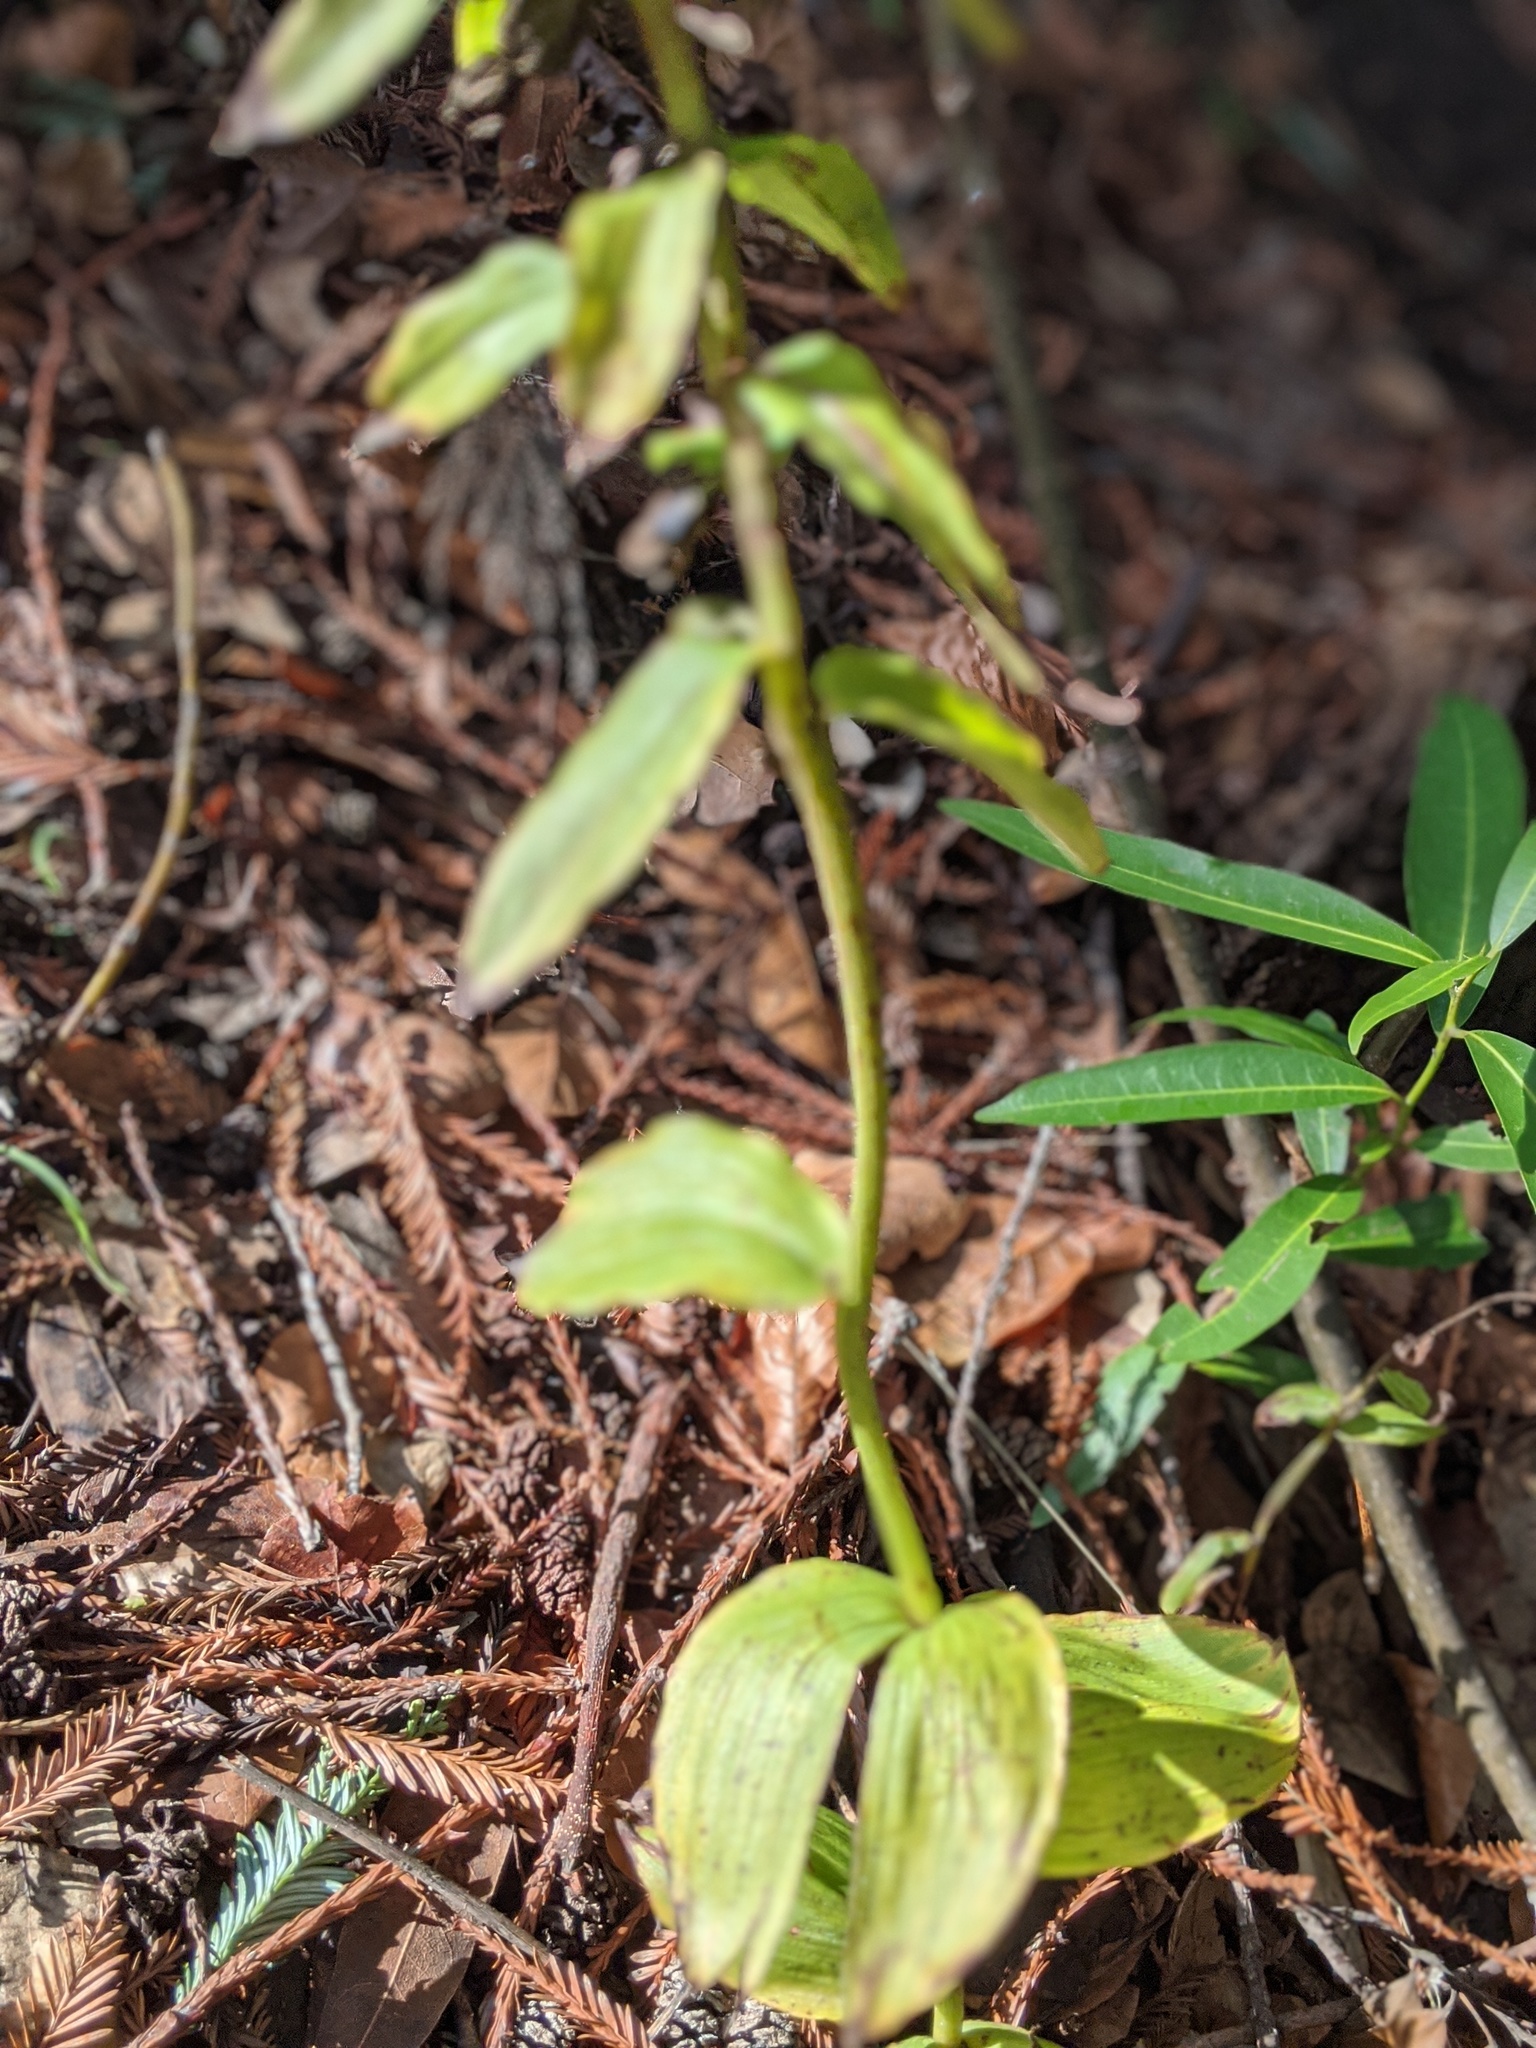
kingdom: Plantae
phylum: Tracheophyta
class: Liliopsida
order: Asparagales
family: Orchidaceae
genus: Epipactis
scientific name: Epipactis helleborine
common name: Broad-leaved helleborine
